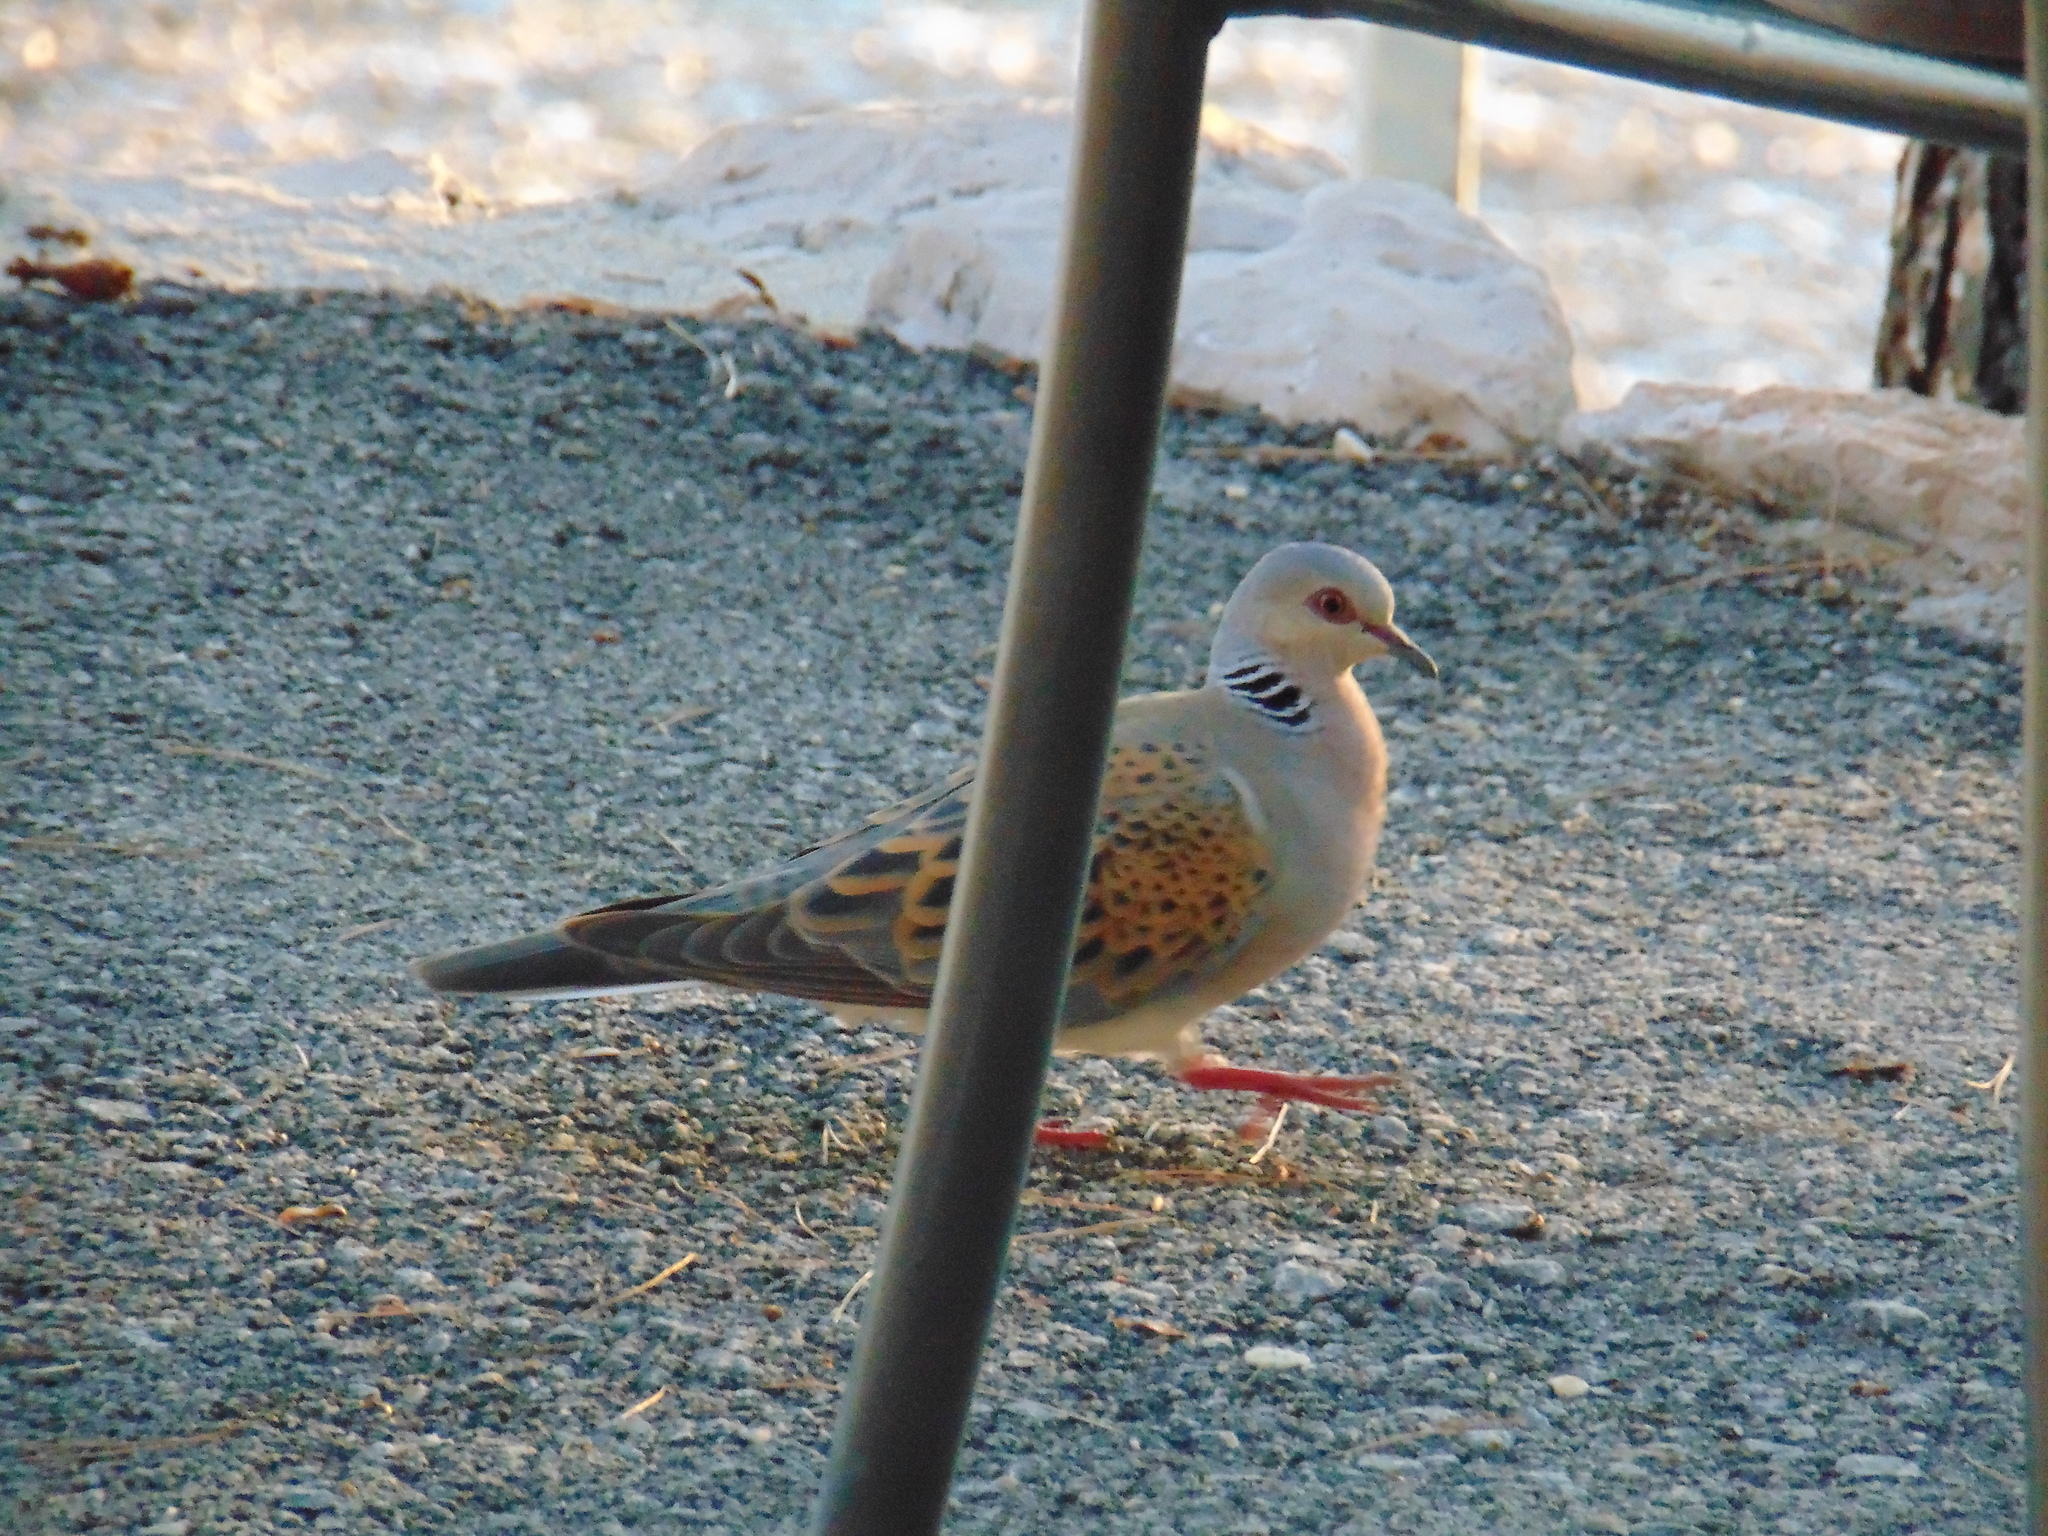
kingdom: Animalia
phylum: Chordata
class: Aves
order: Columbiformes
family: Columbidae
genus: Streptopelia
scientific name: Streptopelia turtur
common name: European turtle dove
